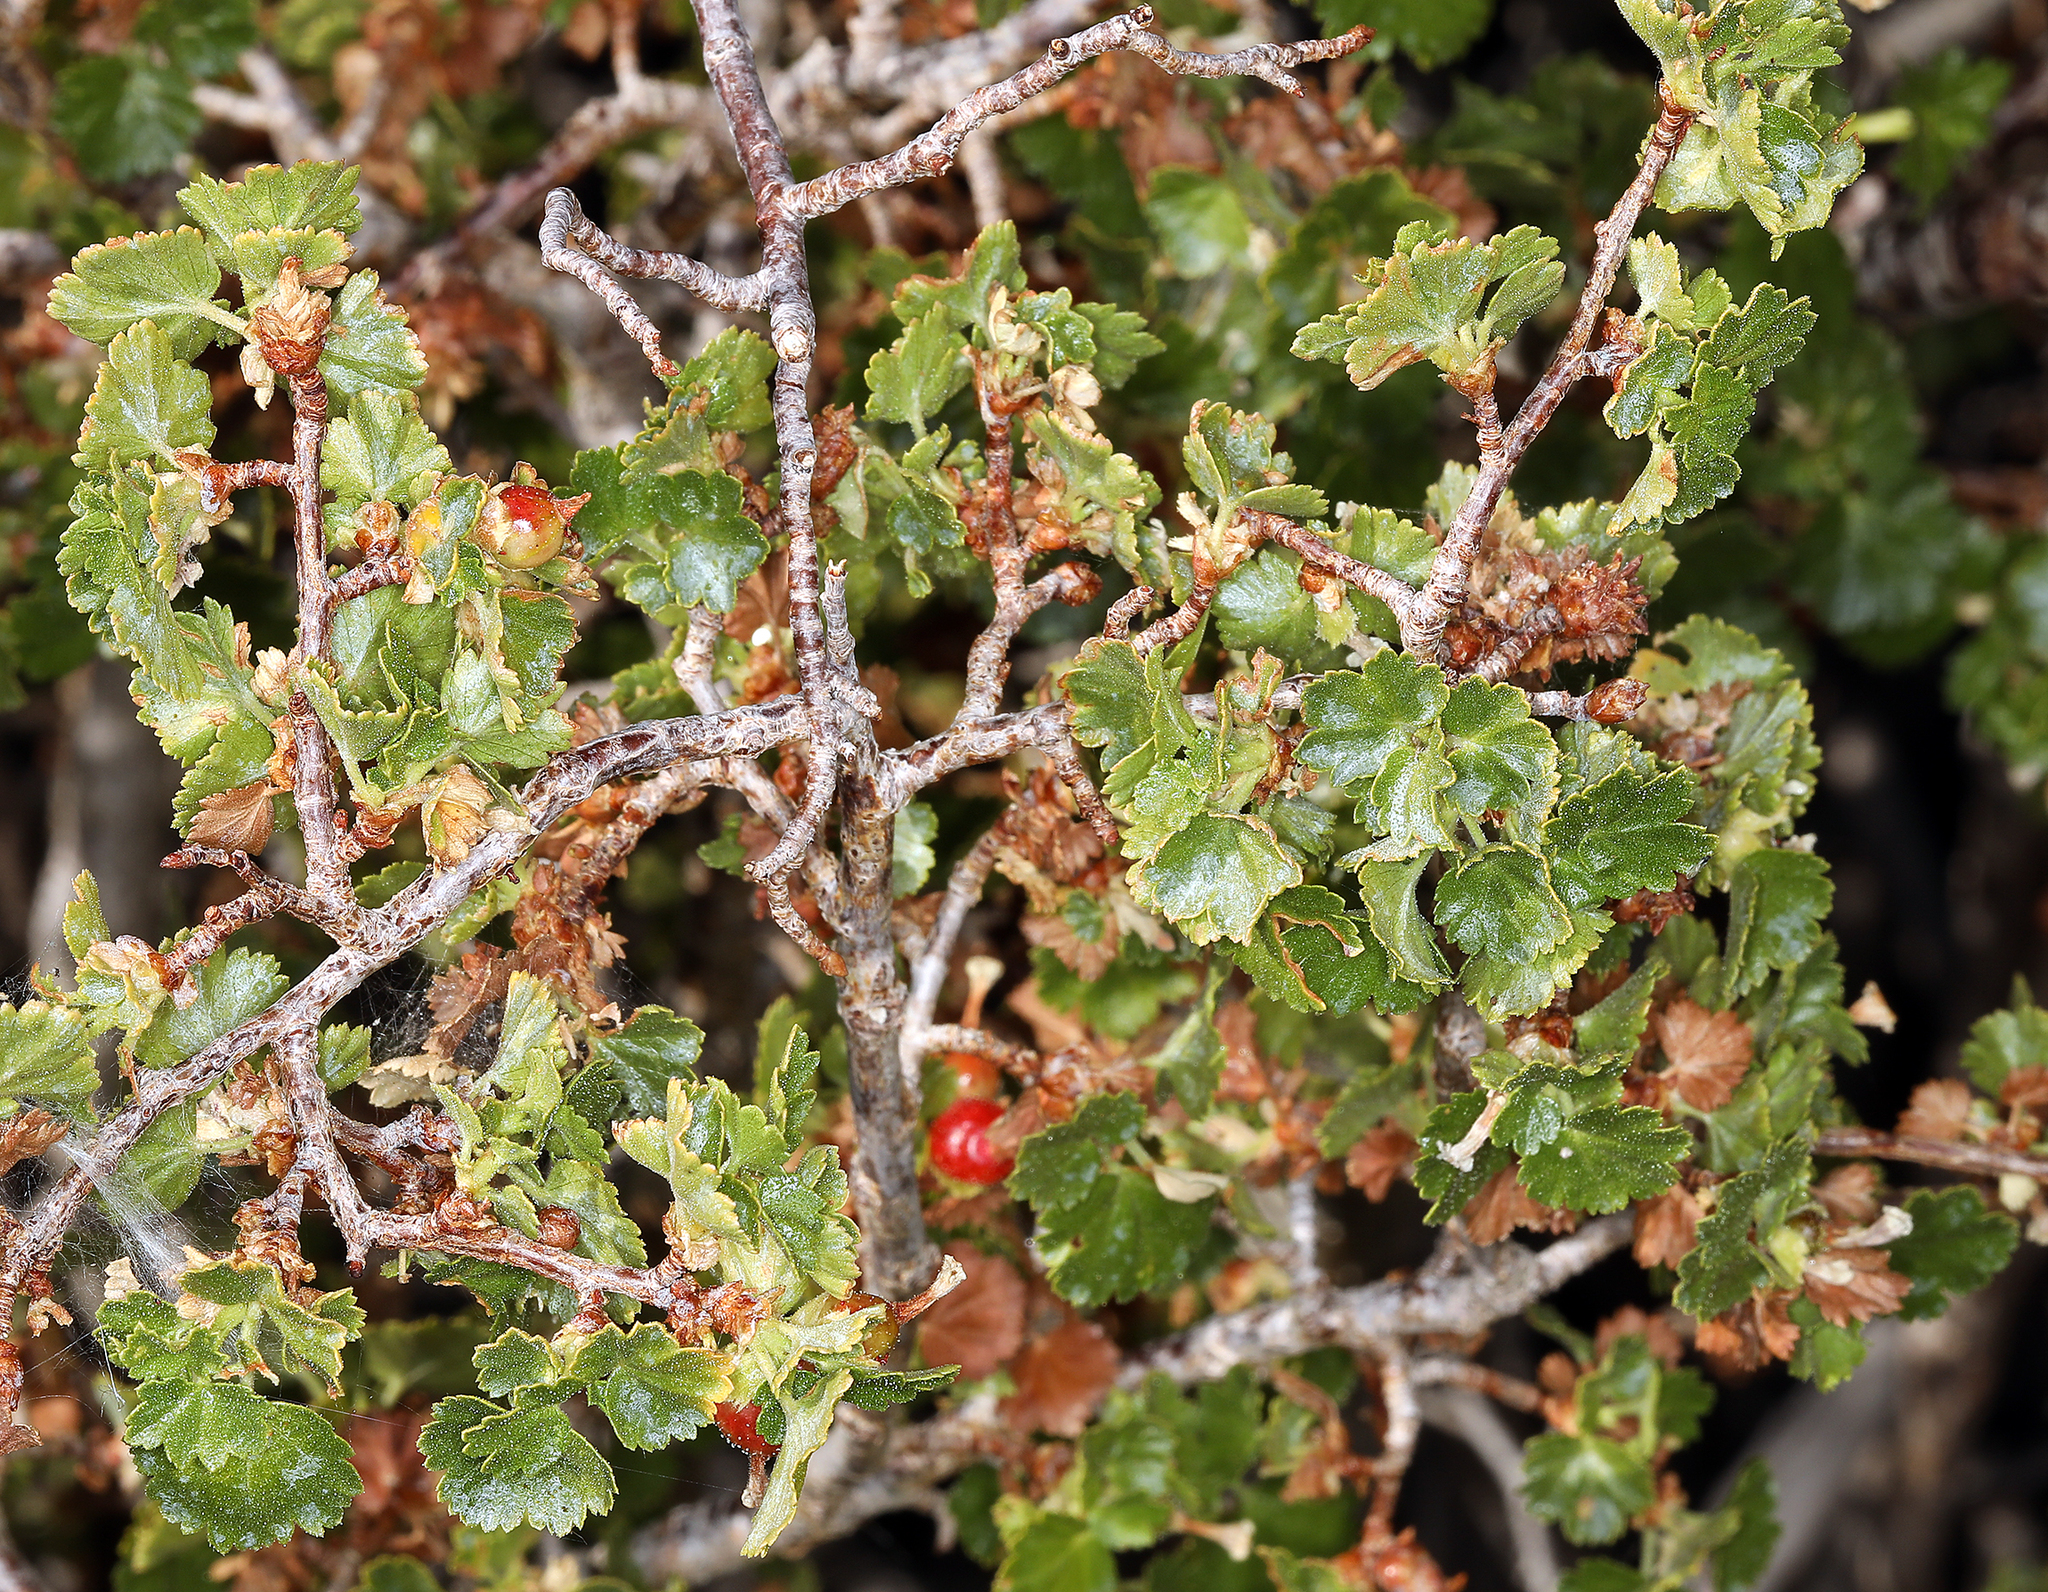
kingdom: Plantae
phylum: Tracheophyta
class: Magnoliopsida
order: Saxifragales
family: Grossulariaceae
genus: Ribes
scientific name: Ribes cereum
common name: Wax currant
